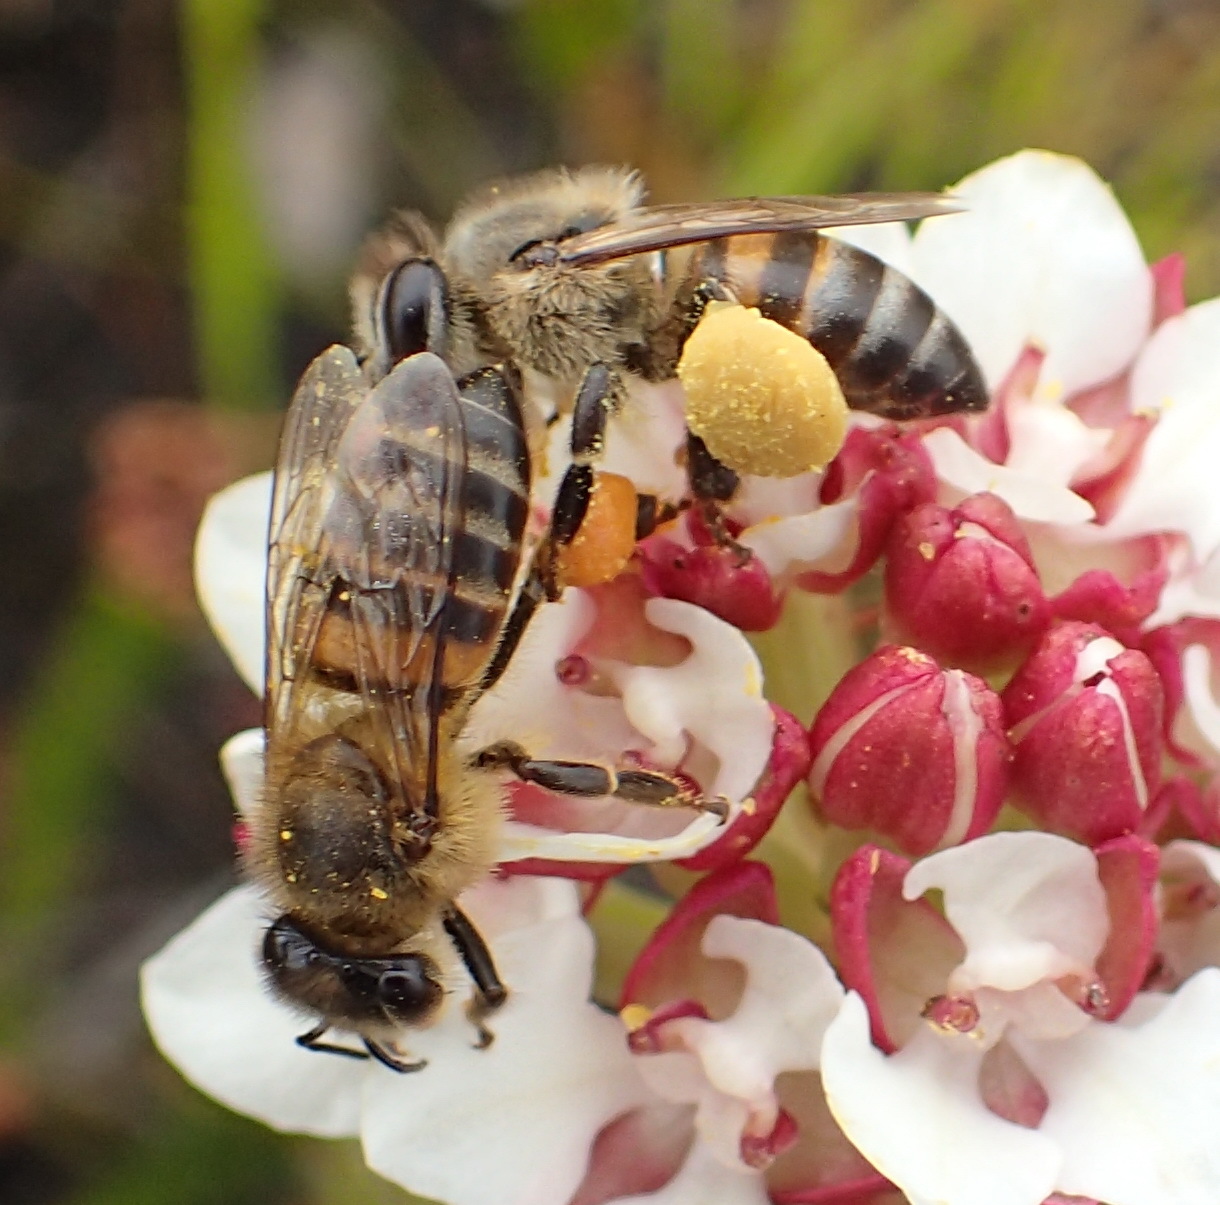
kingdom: Animalia
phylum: Arthropoda
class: Insecta
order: Hymenoptera
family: Apidae
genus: Apis
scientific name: Apis mellifera
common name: Honey bee
